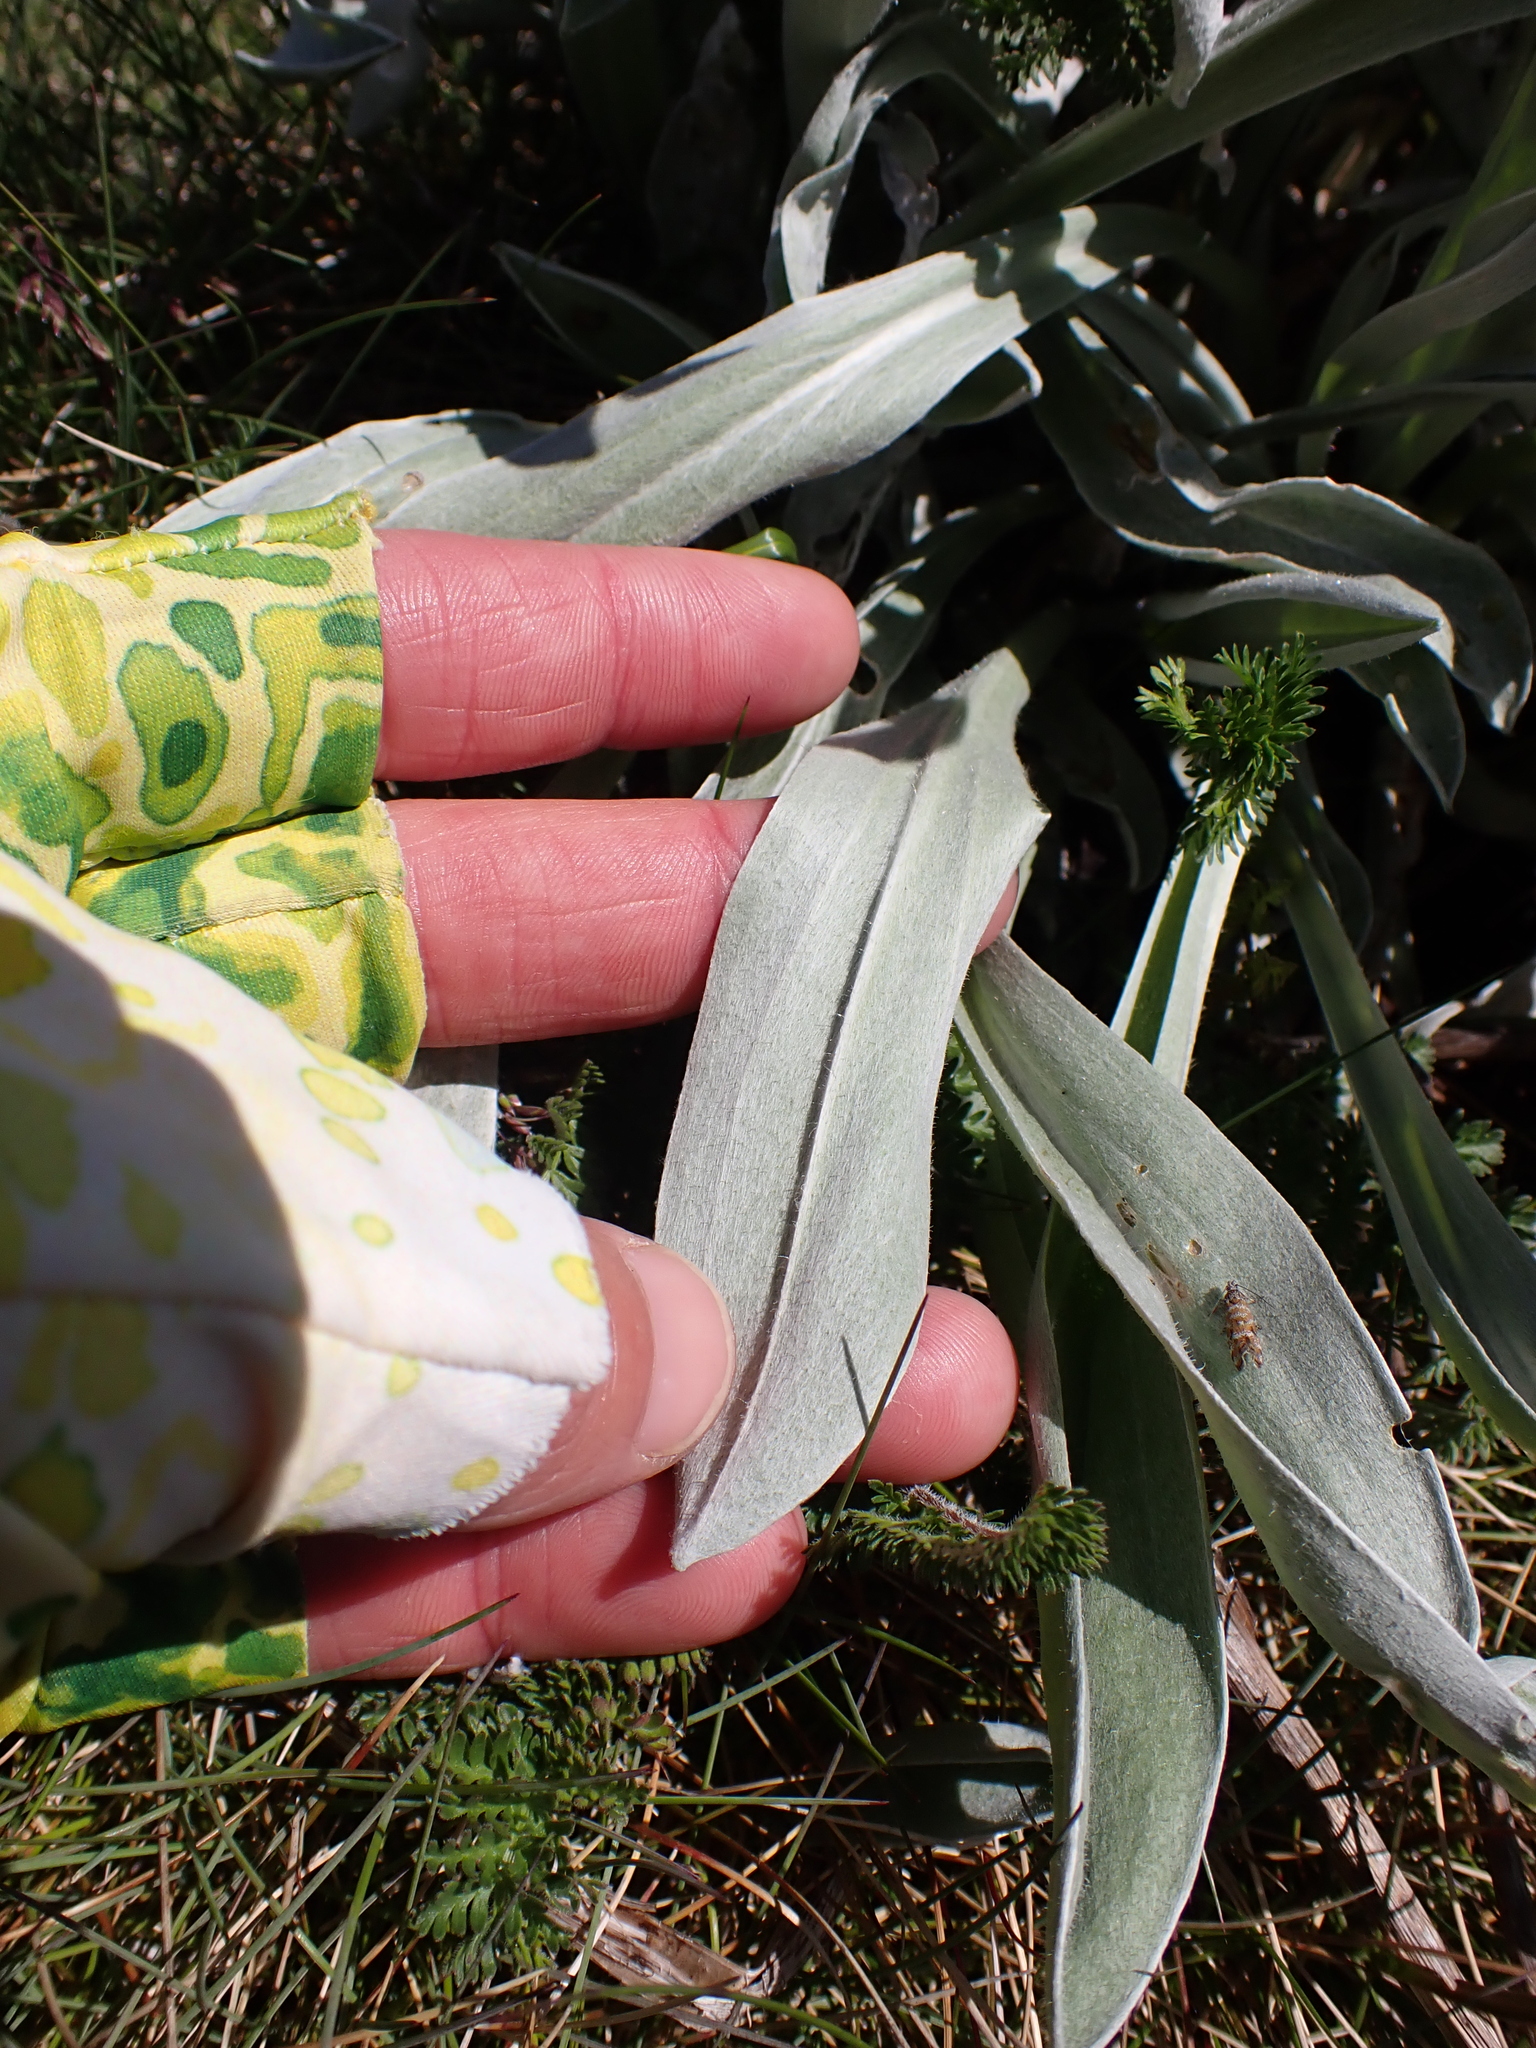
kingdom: Plantae
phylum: Tracheophyta
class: Magnoliopsida
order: Asterales
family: Asteraceae
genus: Craspedia
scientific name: Craspedia maxgrayi
